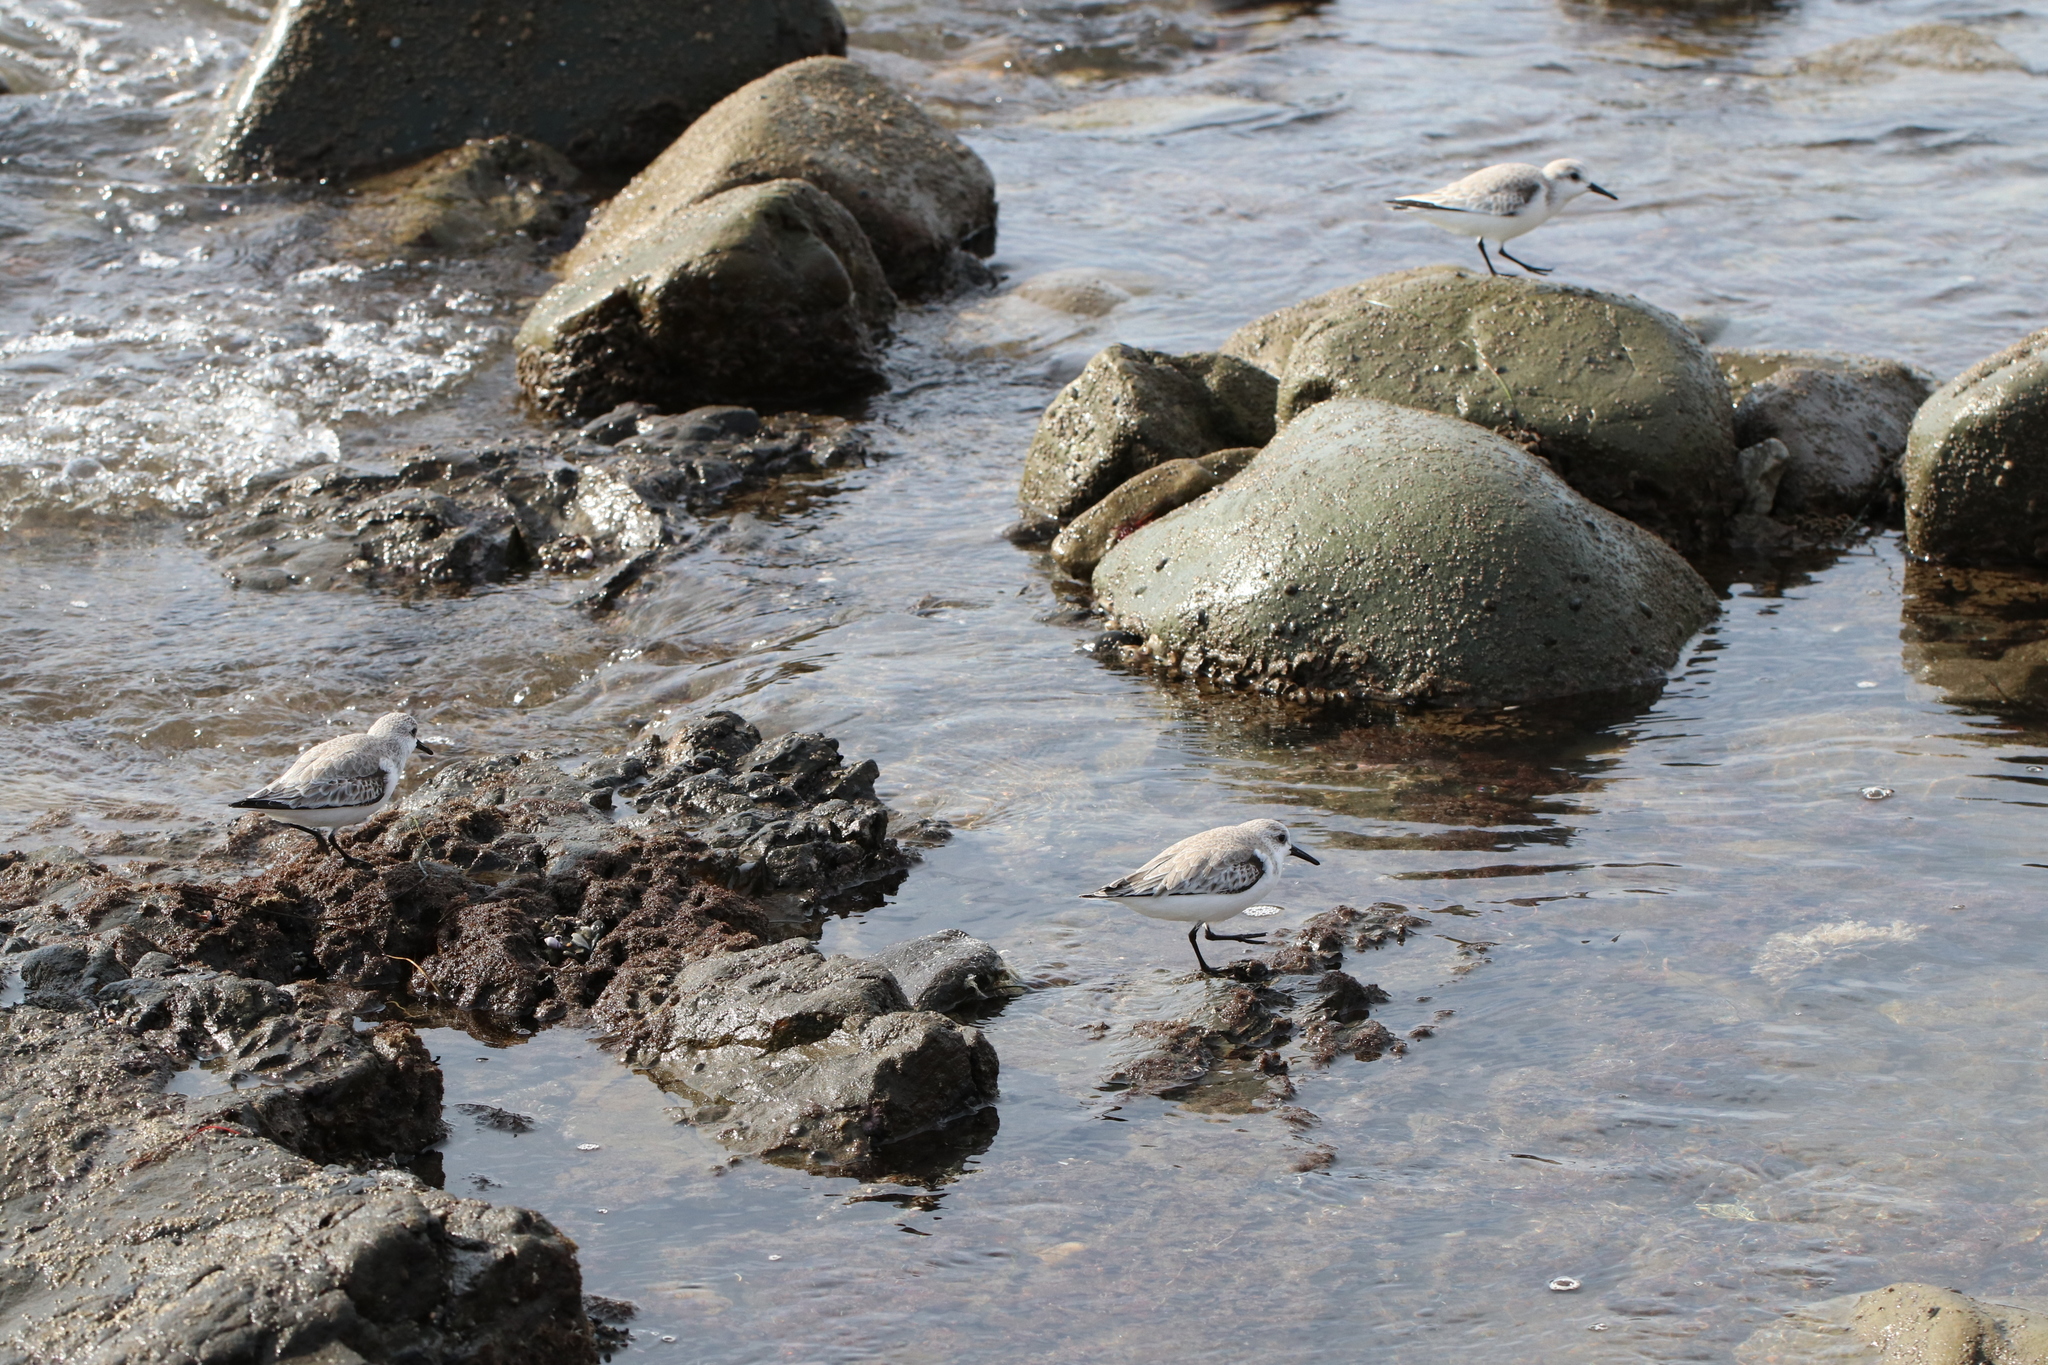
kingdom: Animalia
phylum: Chordata
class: Aves
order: Charadriiformes
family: Scolopacidae
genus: Calidris
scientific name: Calidris alba
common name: Sanderling
